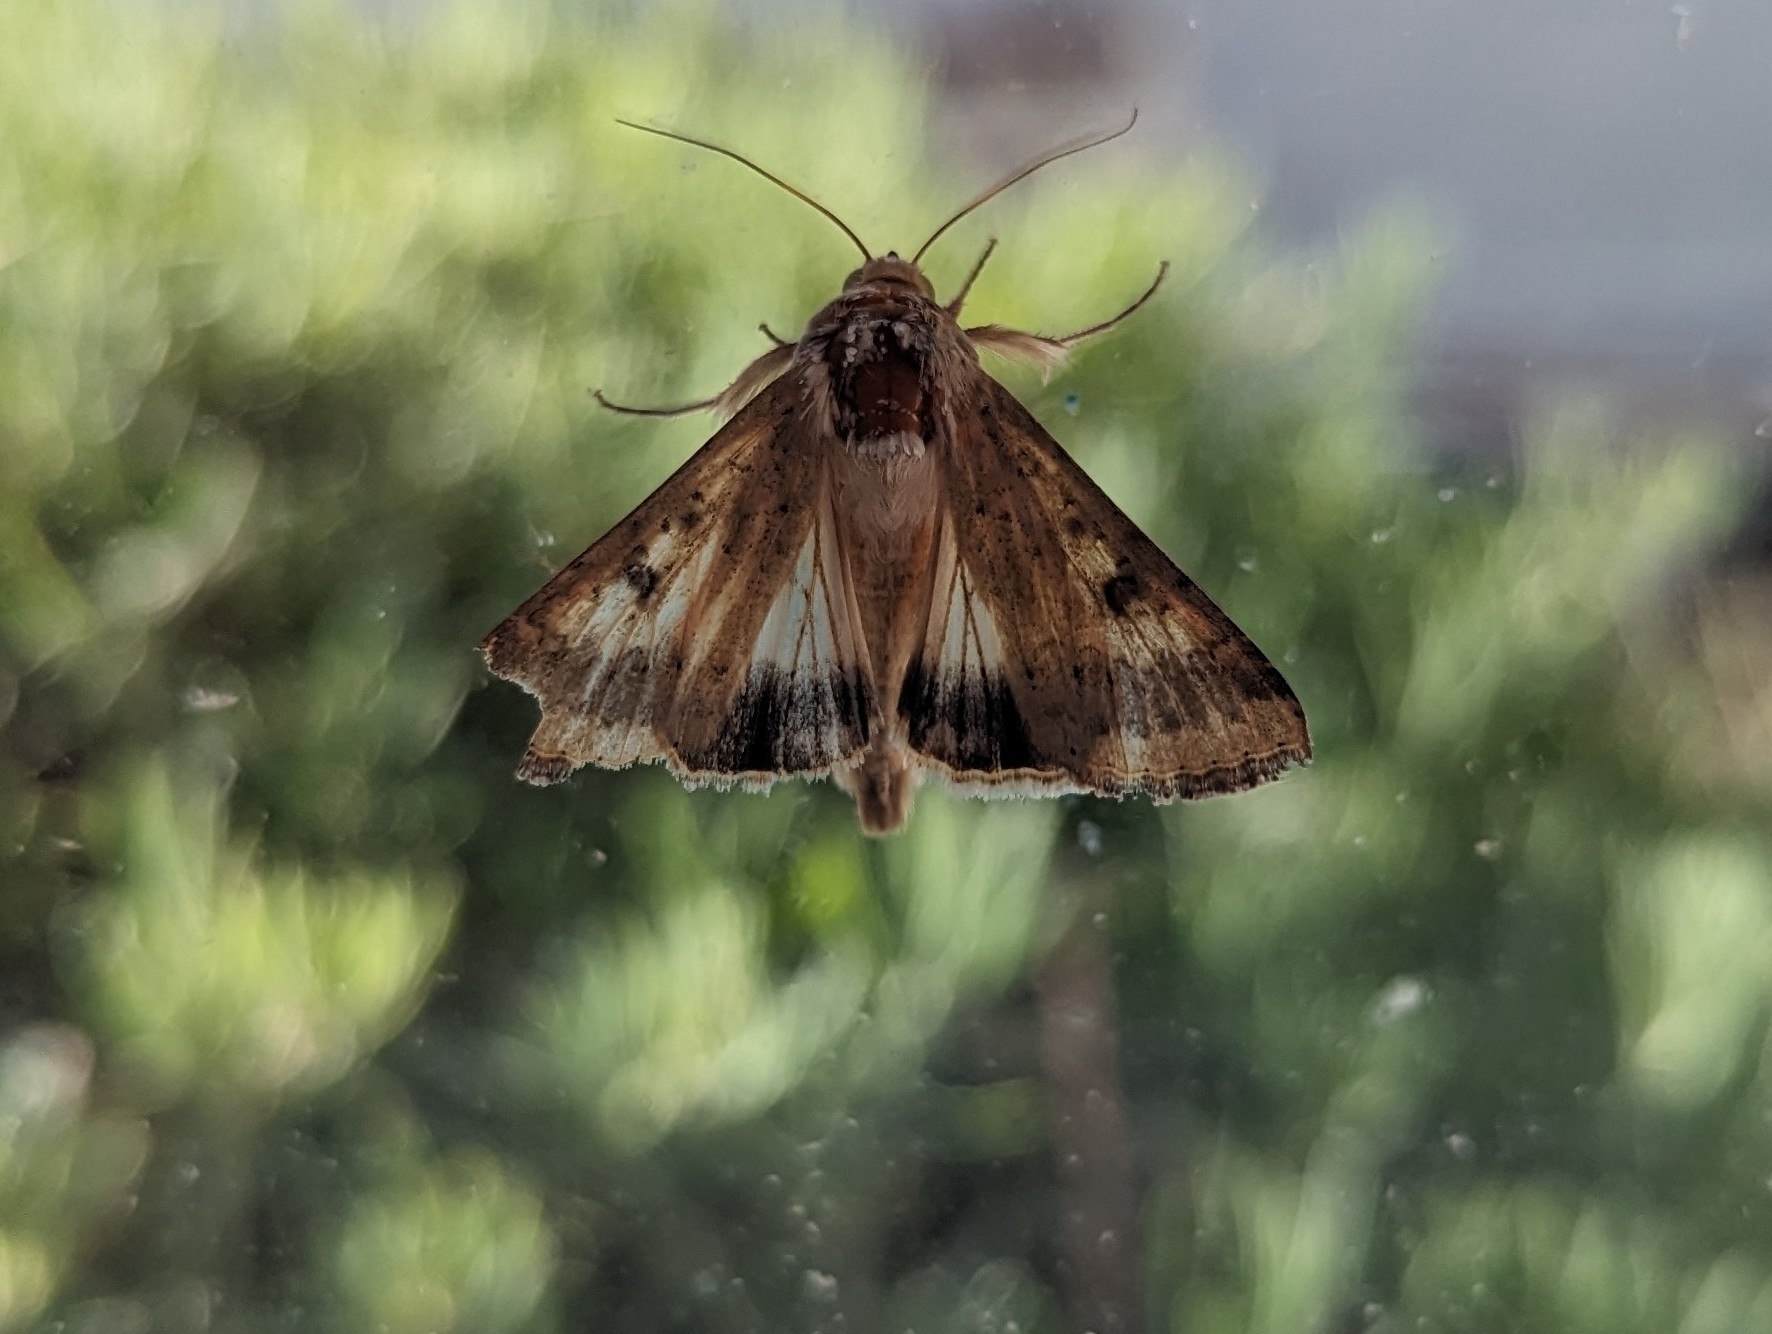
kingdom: Animalia
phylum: Arthropoda
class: Insecta
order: Lepidoptera
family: Noctuidae
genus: Helicoverpa
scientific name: Helicoverpa armigera
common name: Cotton bollworm
